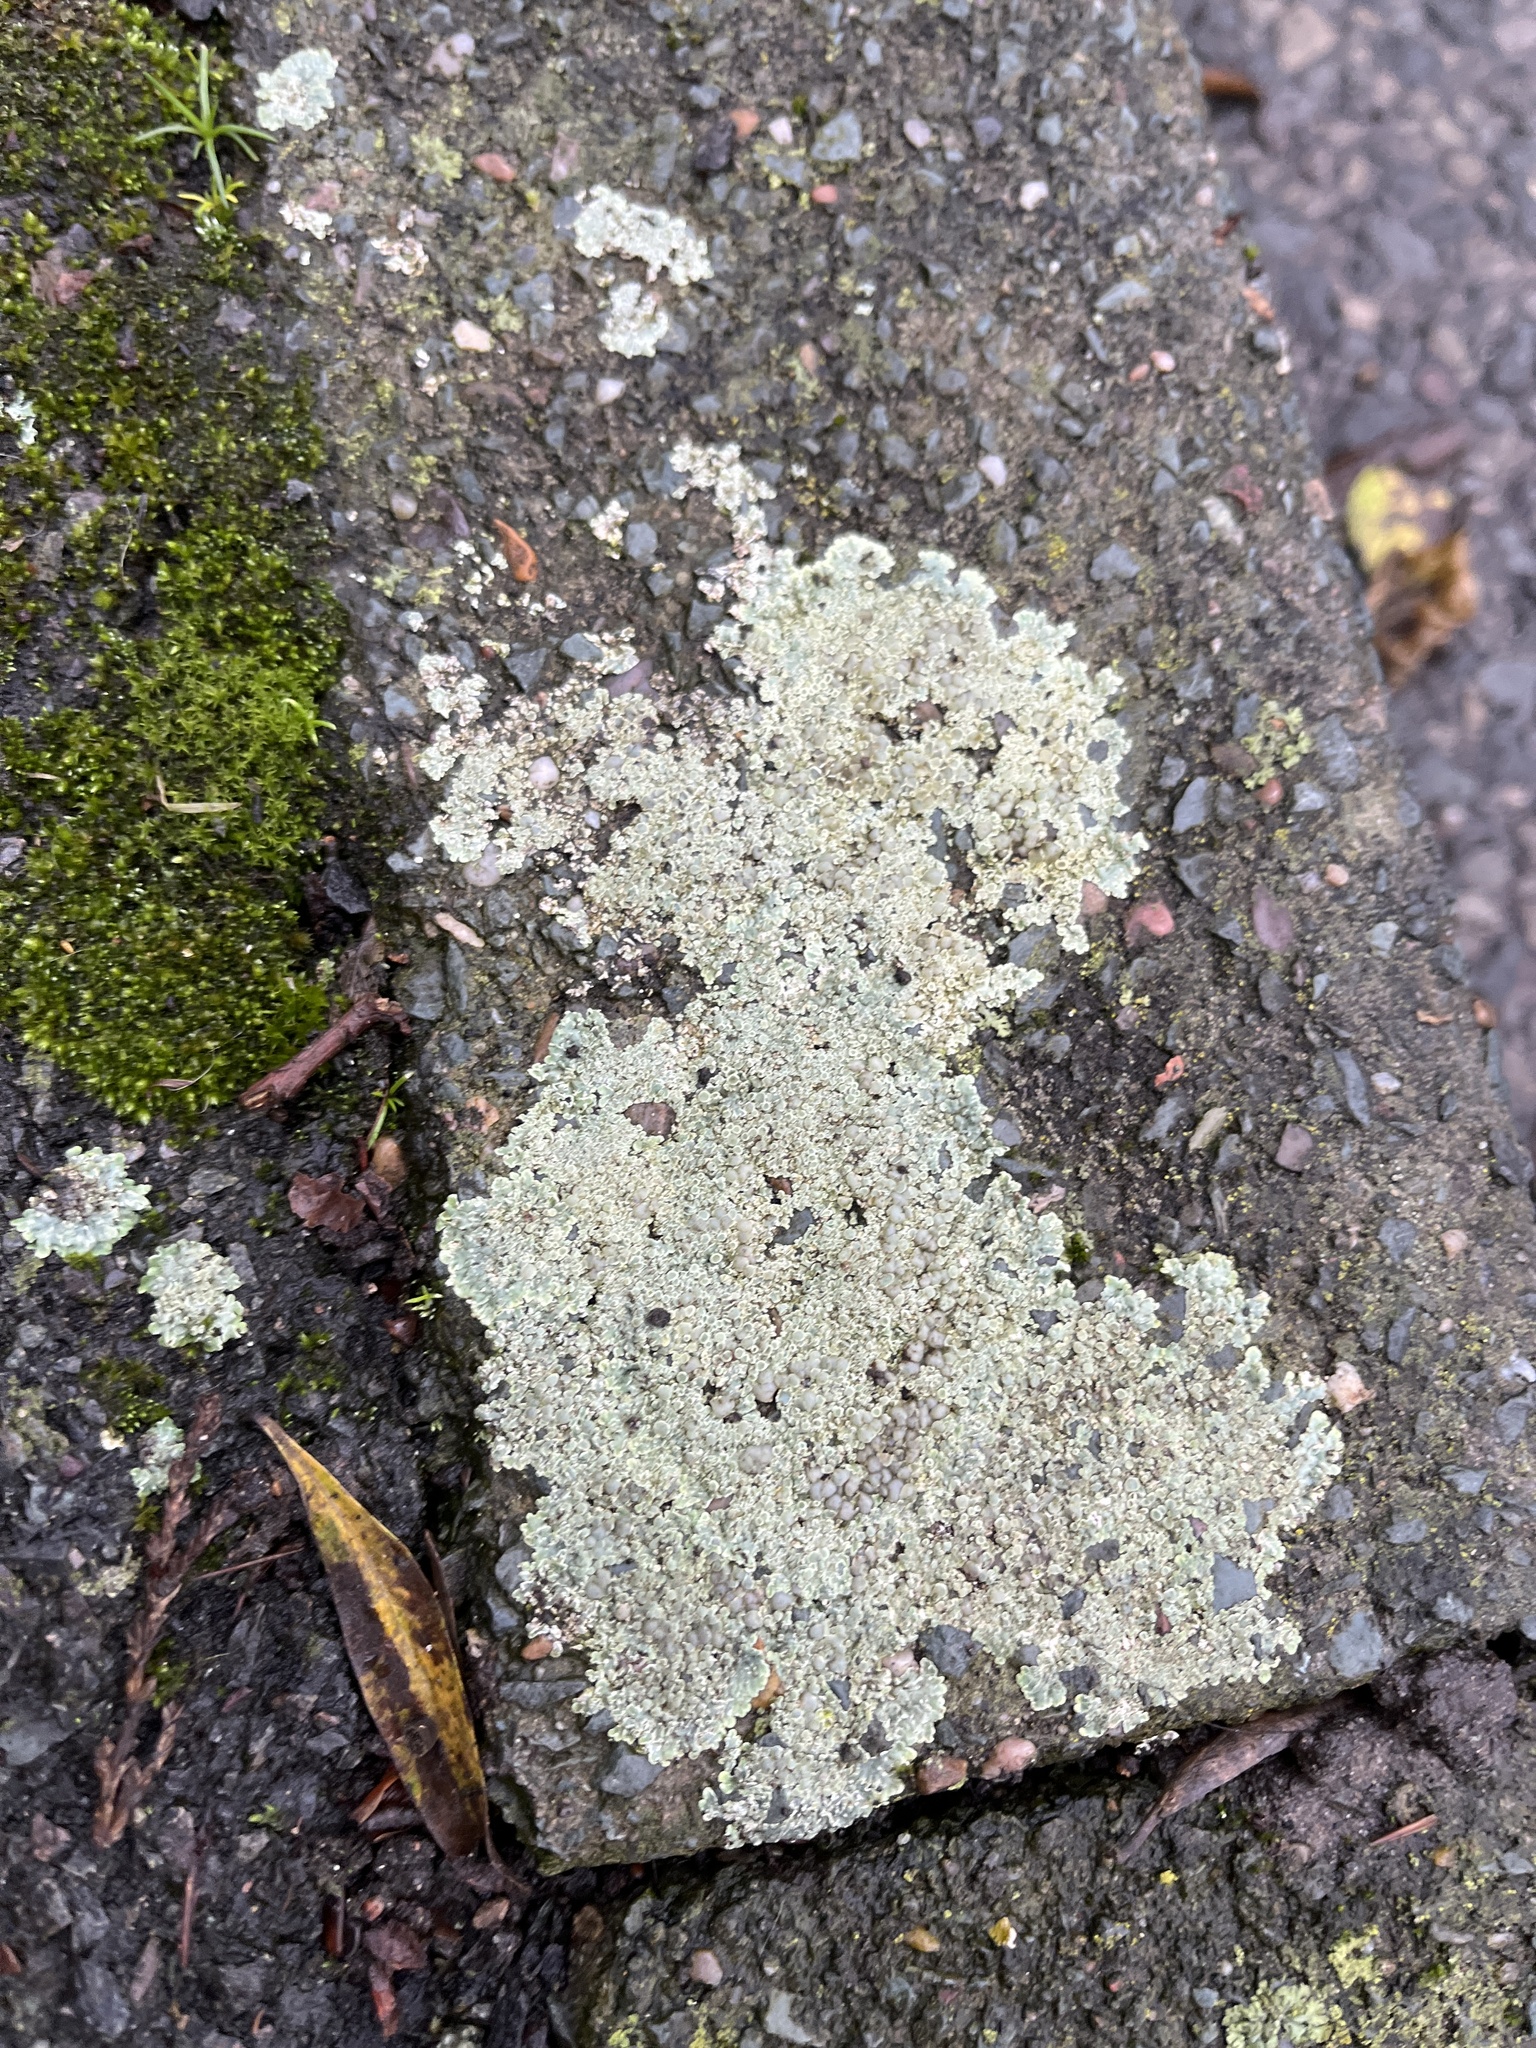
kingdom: Fungi
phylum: Ascomycota
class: Lecanoromycetes
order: Lecanorales
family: Lecanoraceae
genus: Protoparmeliopsis
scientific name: Protoparmeliopsis muralis
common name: Stonewall rim lichen
